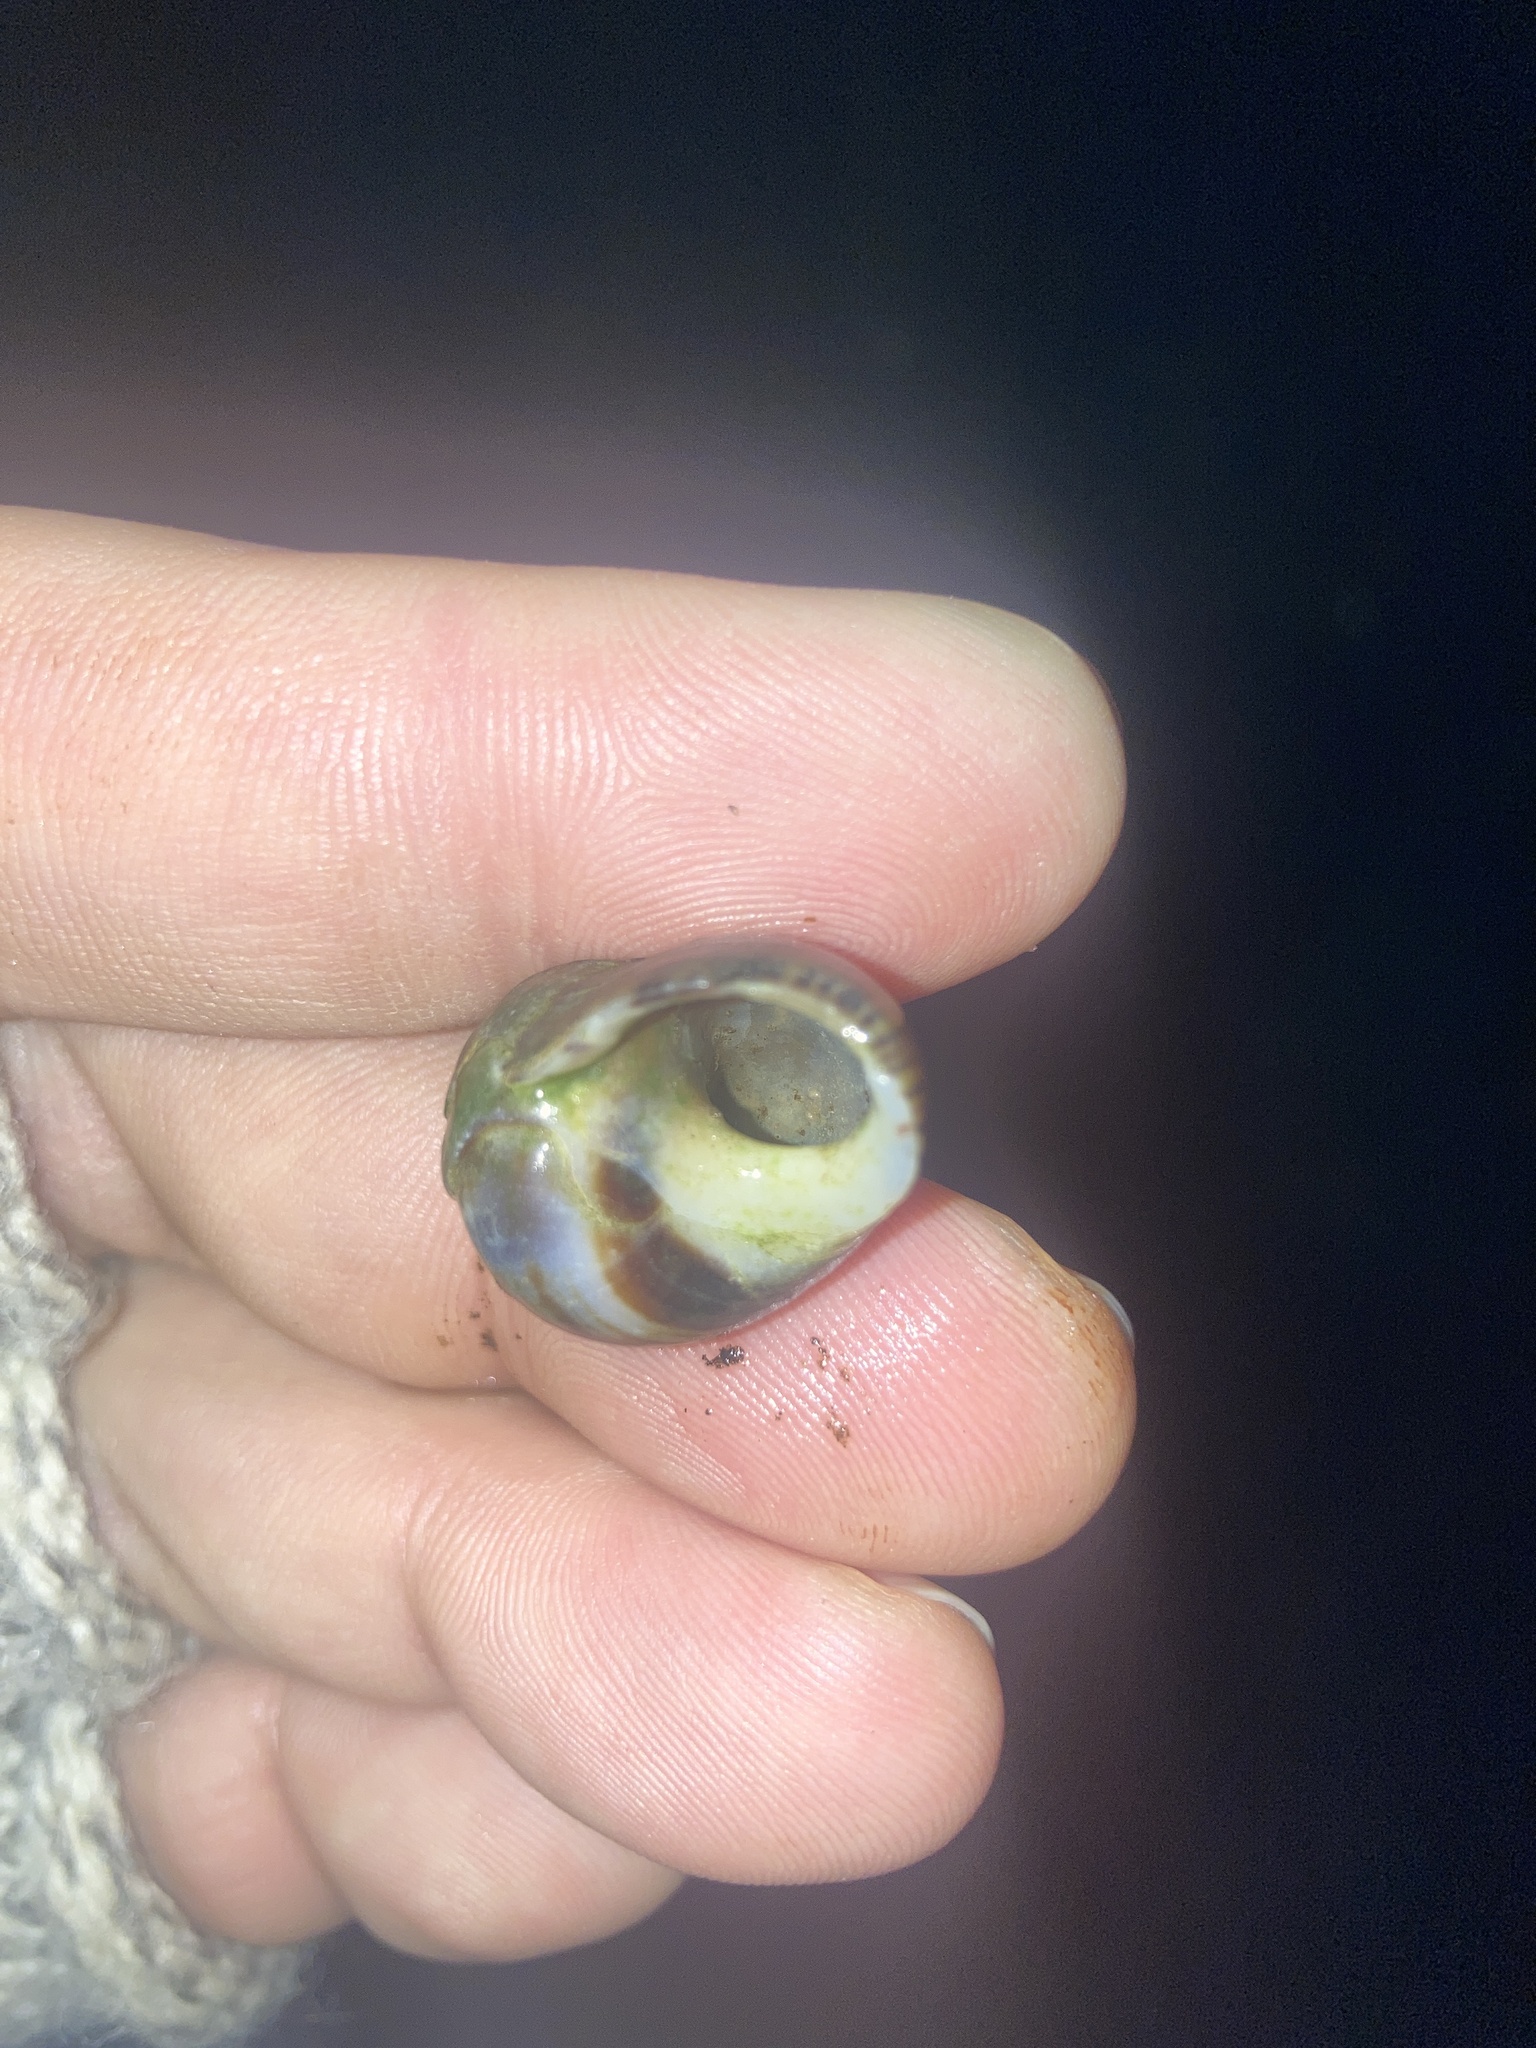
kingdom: Animalia
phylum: Mollusca
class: Gastropoda
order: Littorinimorpha
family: Littorinidae
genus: Littorina
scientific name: Littorina littorea
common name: Common periwinkle
